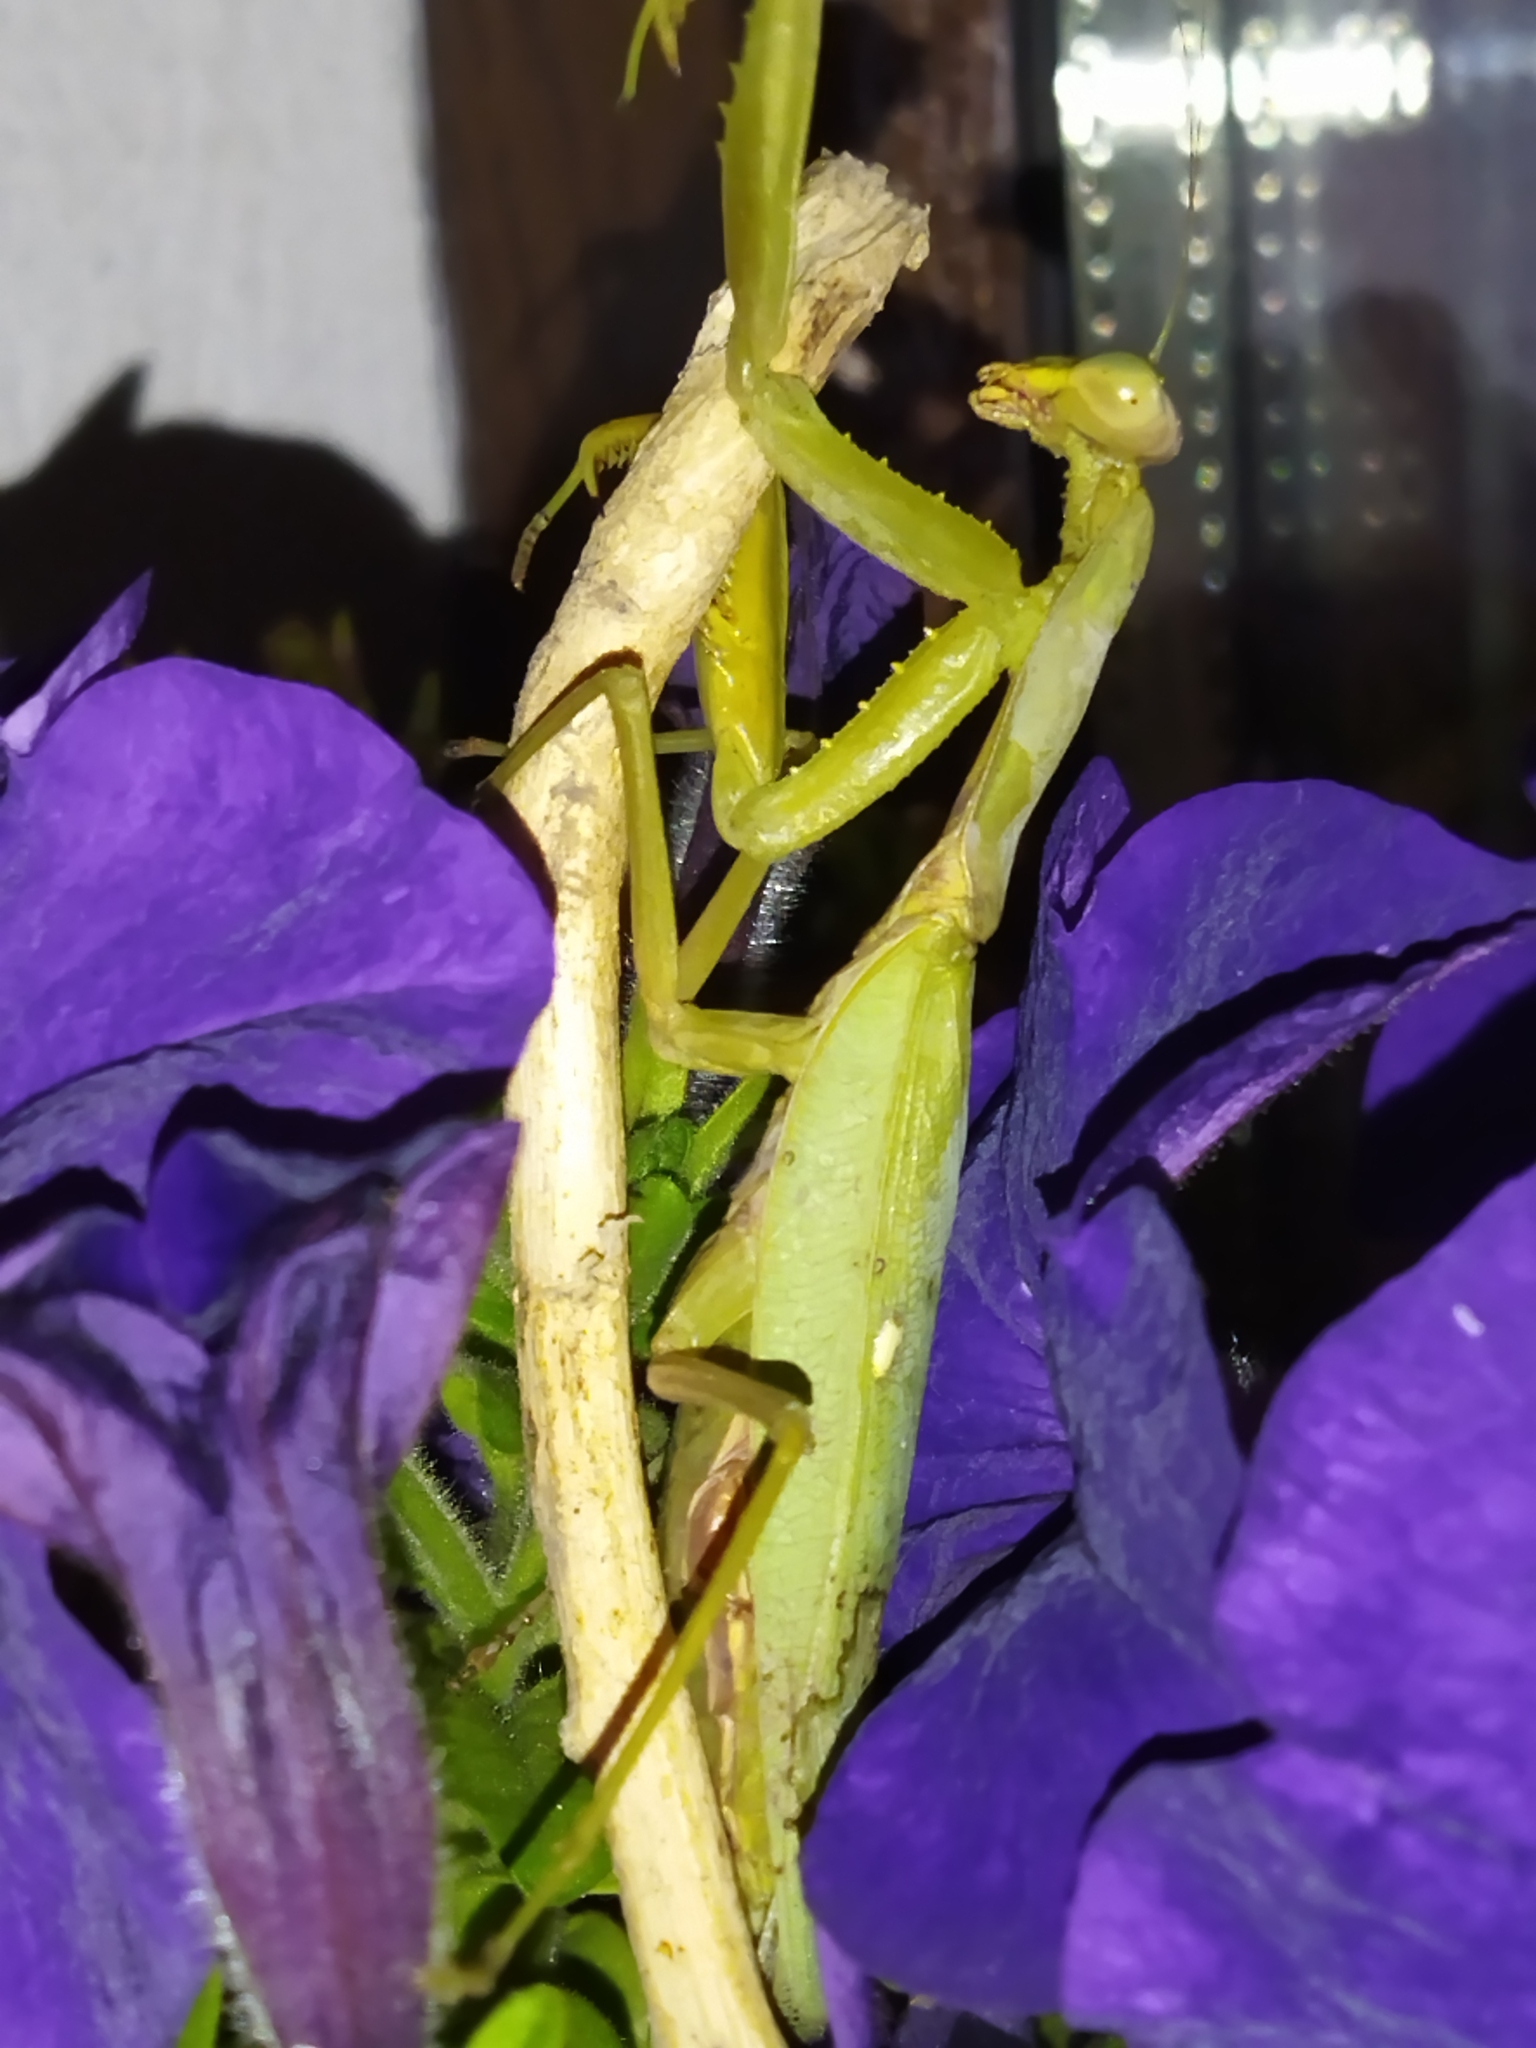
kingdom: Animalia
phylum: Arthropoda
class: Insecta
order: Mantodea
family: Mantidae
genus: Hierodula
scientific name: Hierodula transcaucasica
